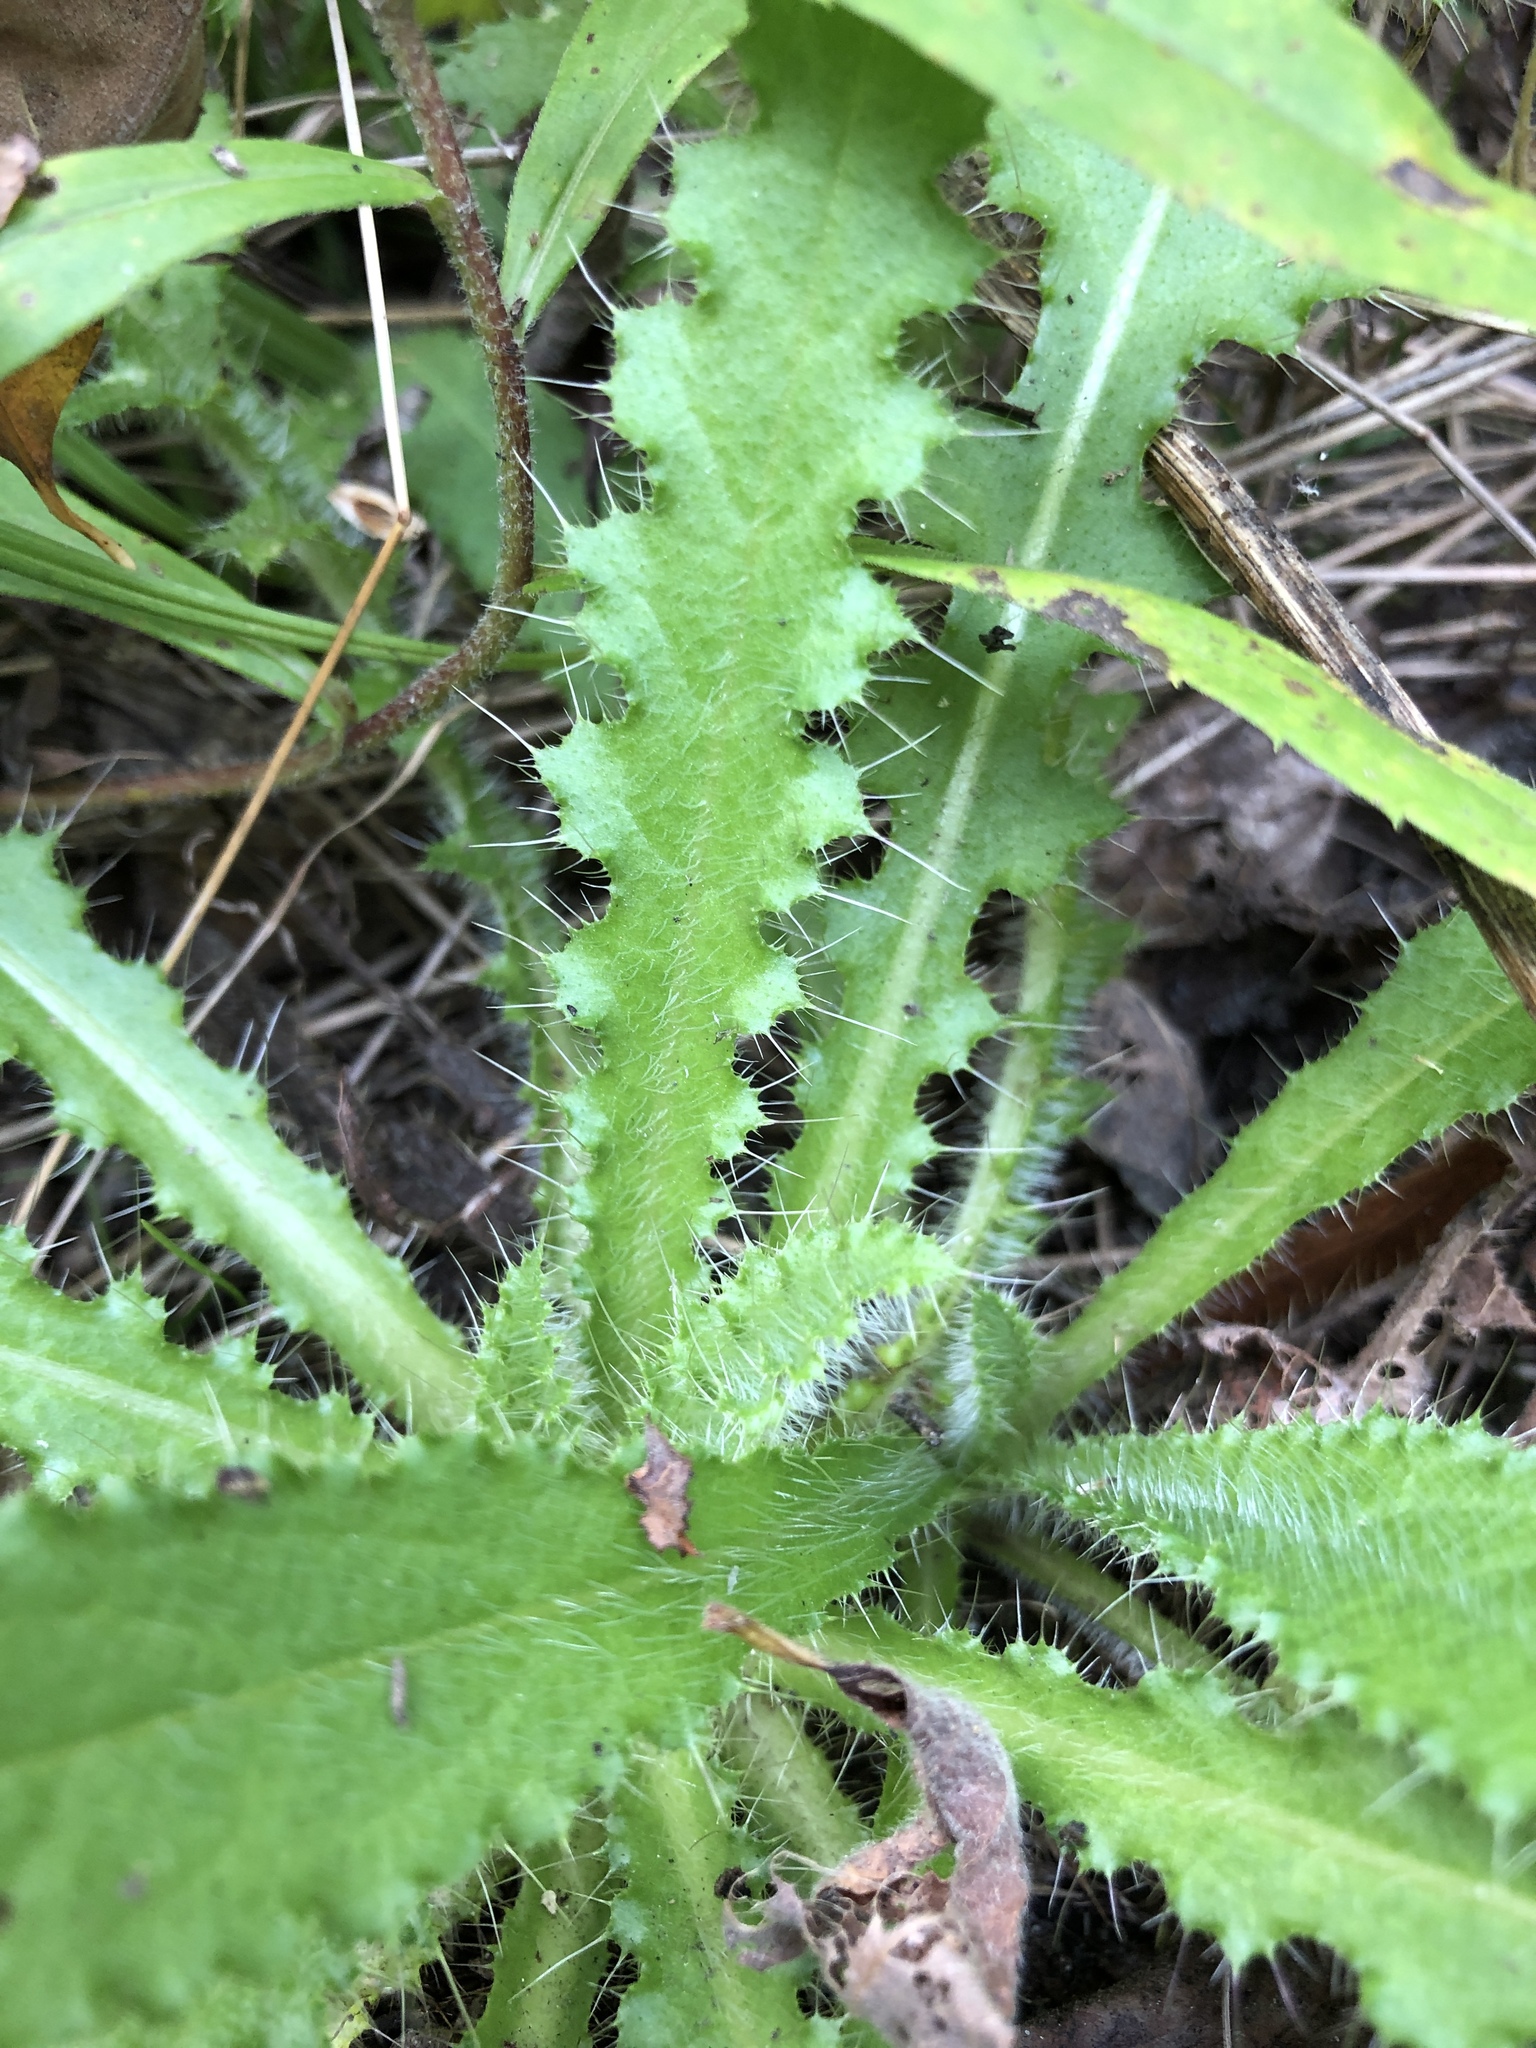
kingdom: Plantae
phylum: Tracheophyta
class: Magnoliopsida
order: Asterales
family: Asteraceae
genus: Cirsium
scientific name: Cirsium palustre
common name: Marsh thistle
